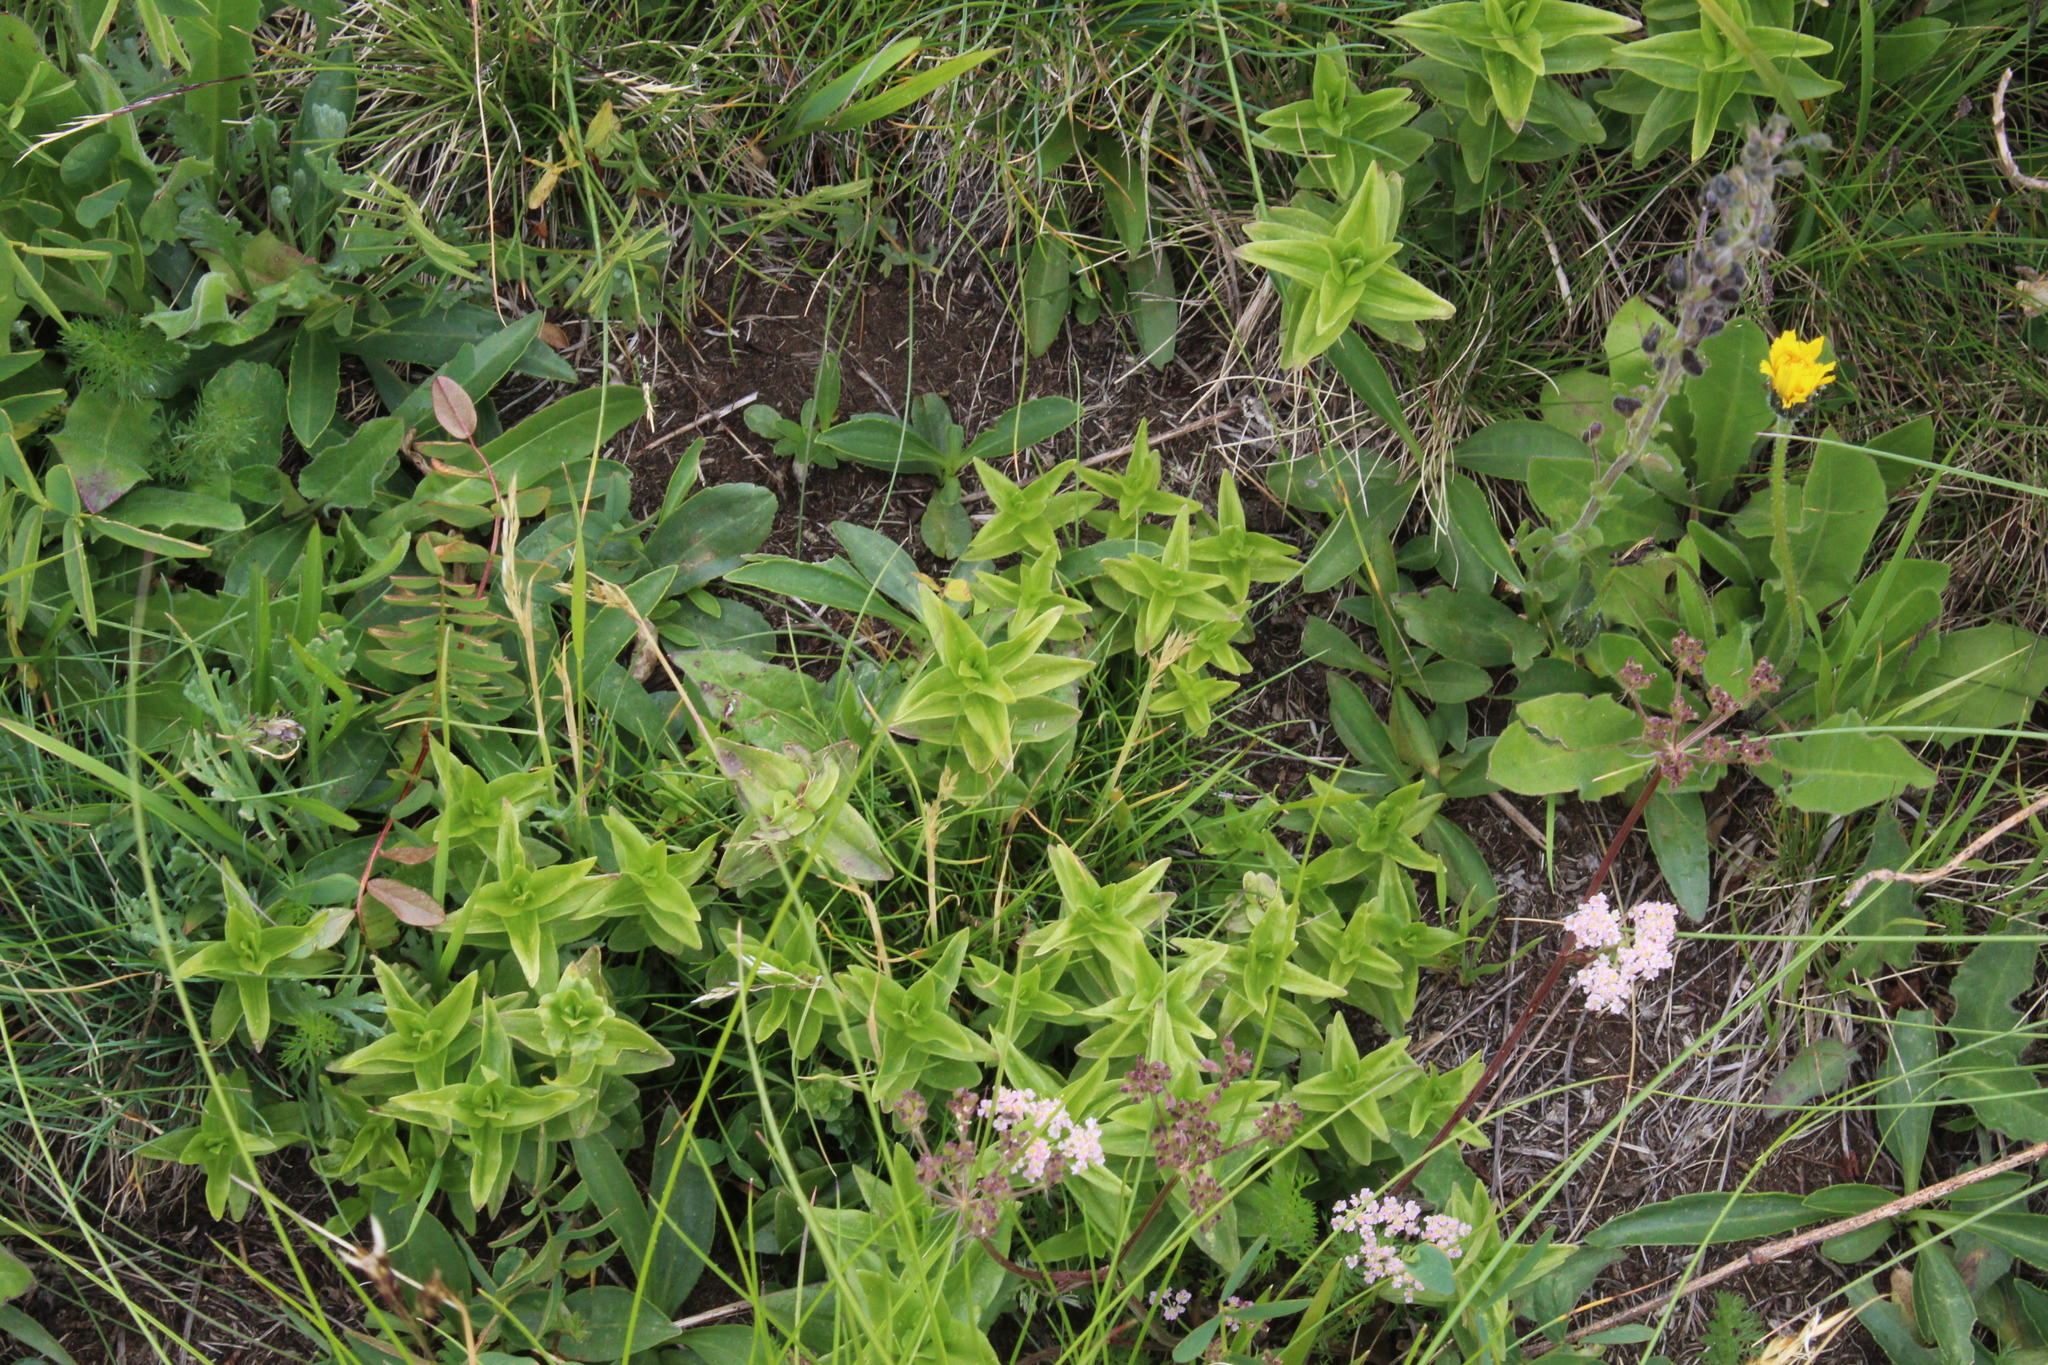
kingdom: Plantae
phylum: Tracheophyta
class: Magnoliopsida
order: Gentianales
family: Gentianaceae
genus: Gentiana
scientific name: Gentiana septemfida
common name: Crested gentian
